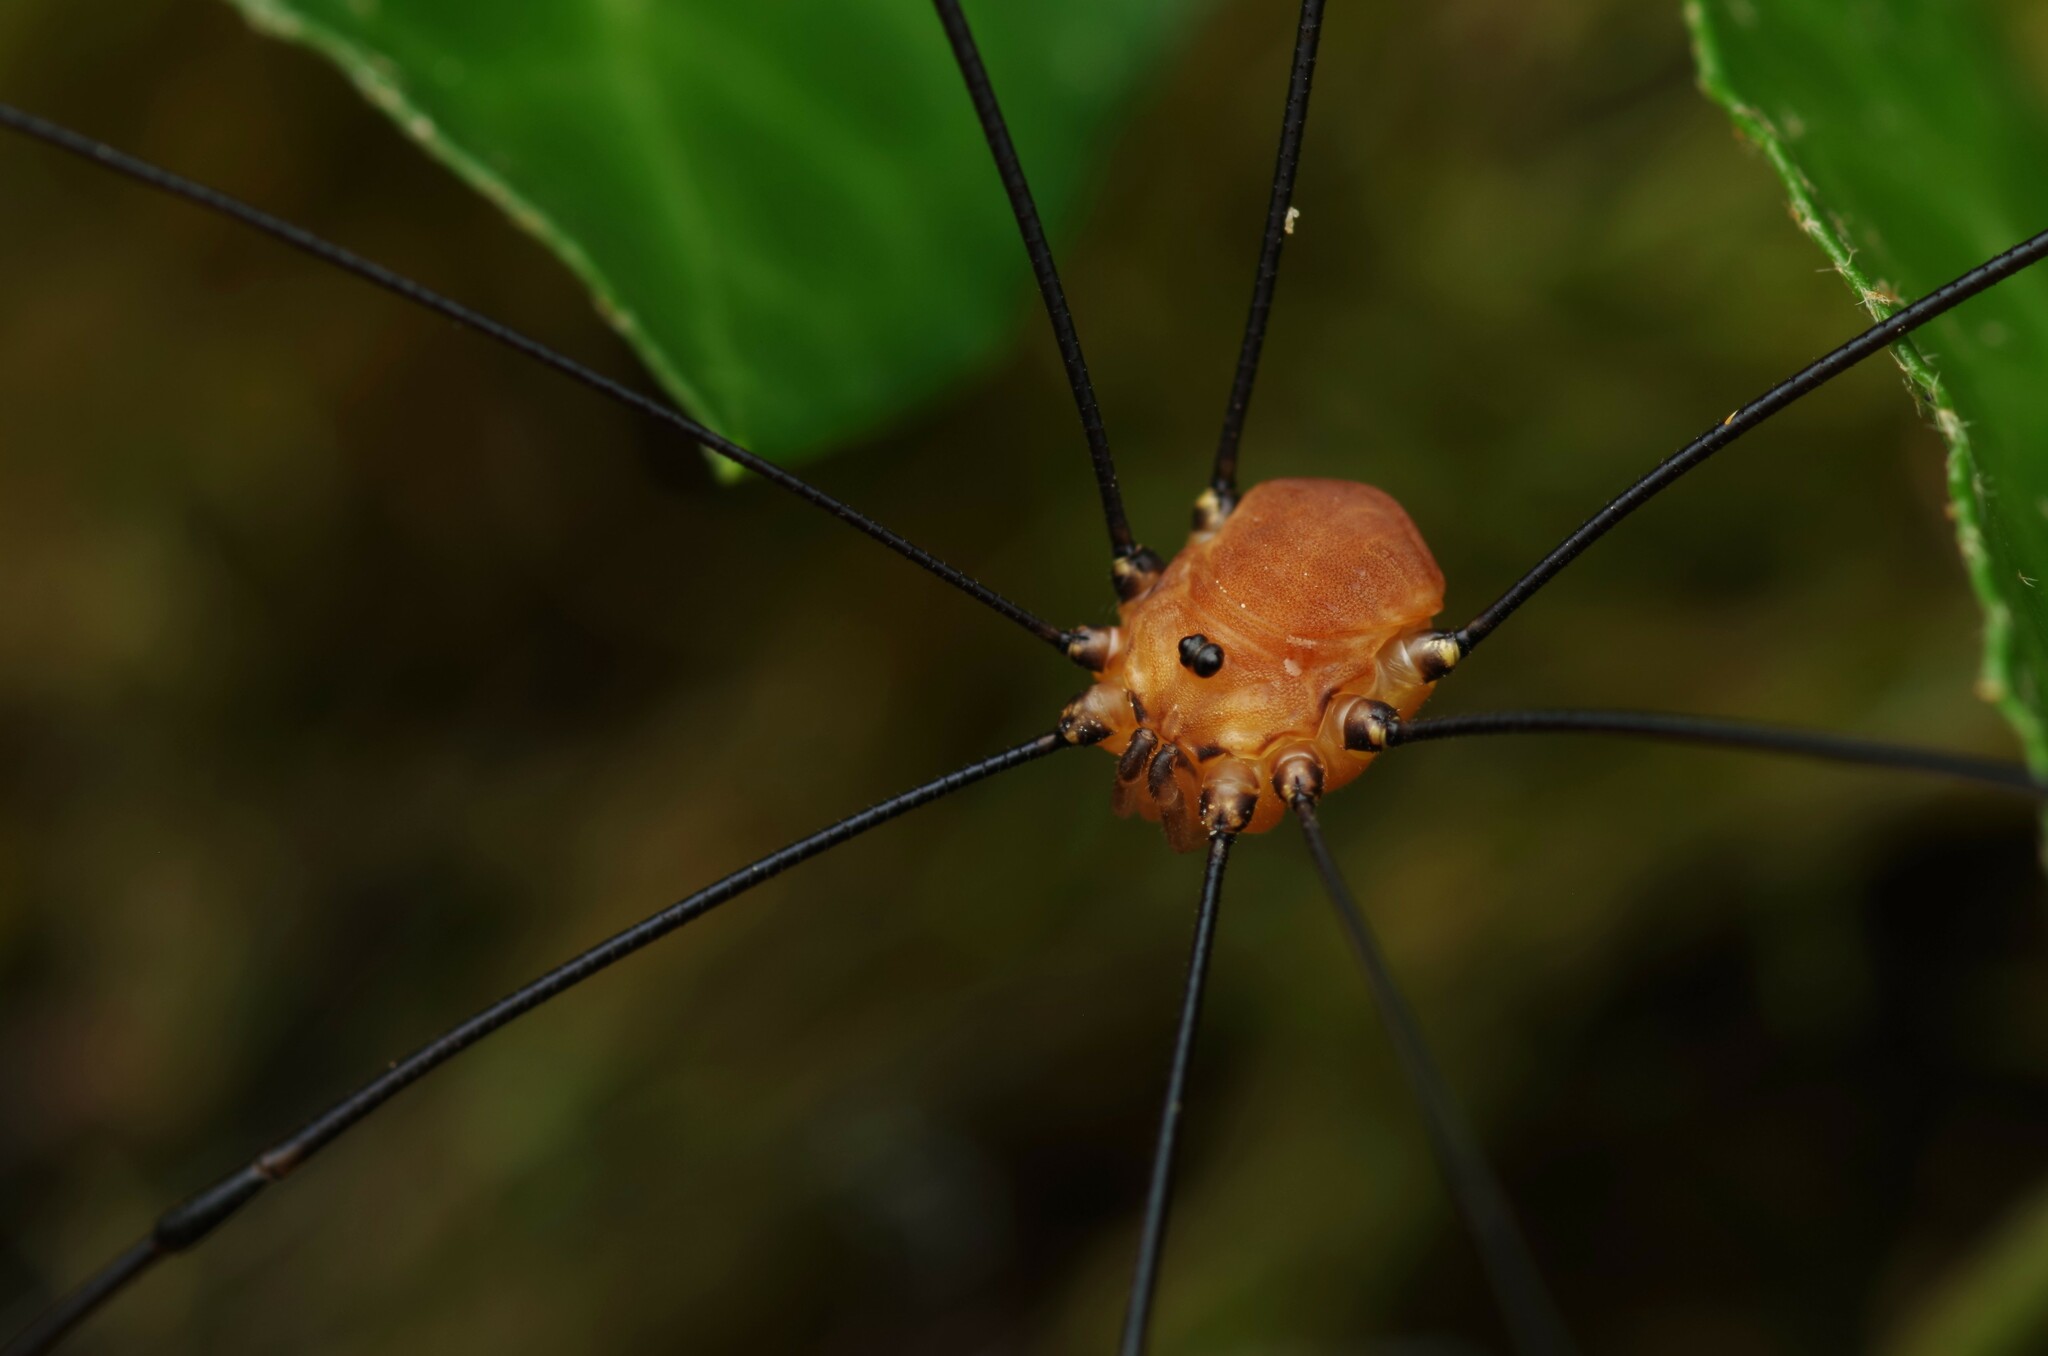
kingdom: Animalia
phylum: Arthropoda
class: Arachnida
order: Opiliones
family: Sclerosomatidae
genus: Leiobunum
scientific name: Leiobunum rotundum
